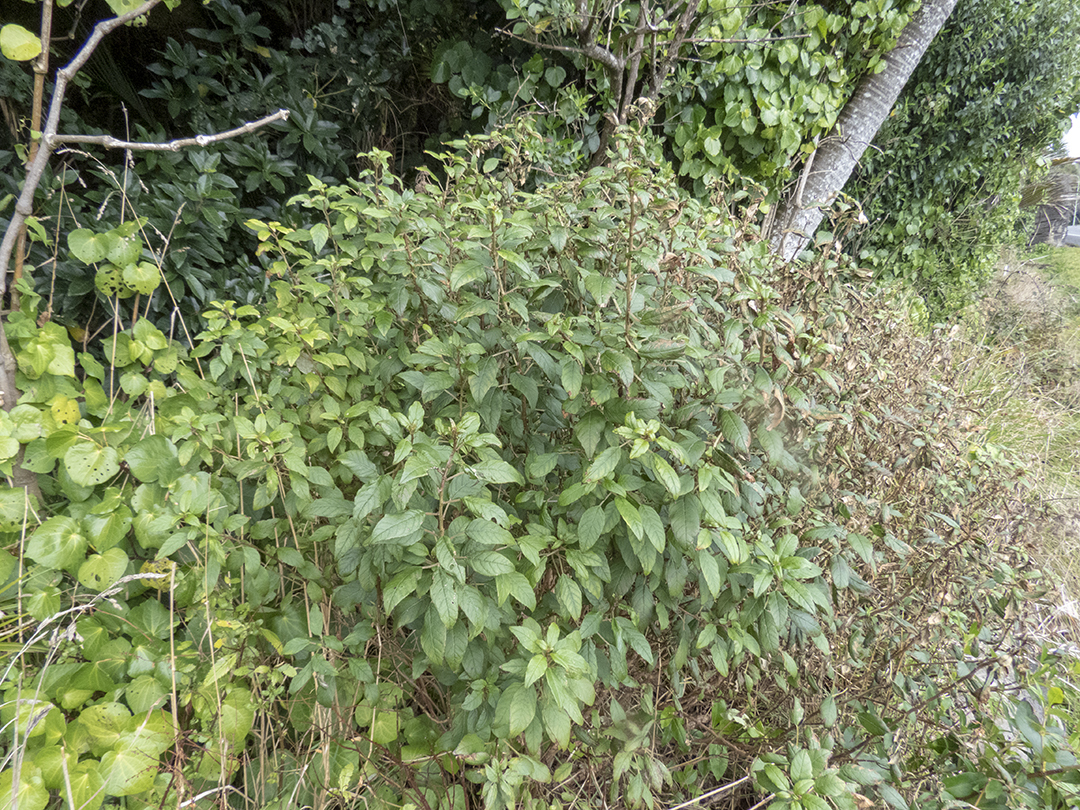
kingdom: Plantae
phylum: Tracheophyta
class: Magnoliopsida
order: Myrtales
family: Onagraceae
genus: Fuchsia
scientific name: Fuchsia excorticata
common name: Tree fuchsia
